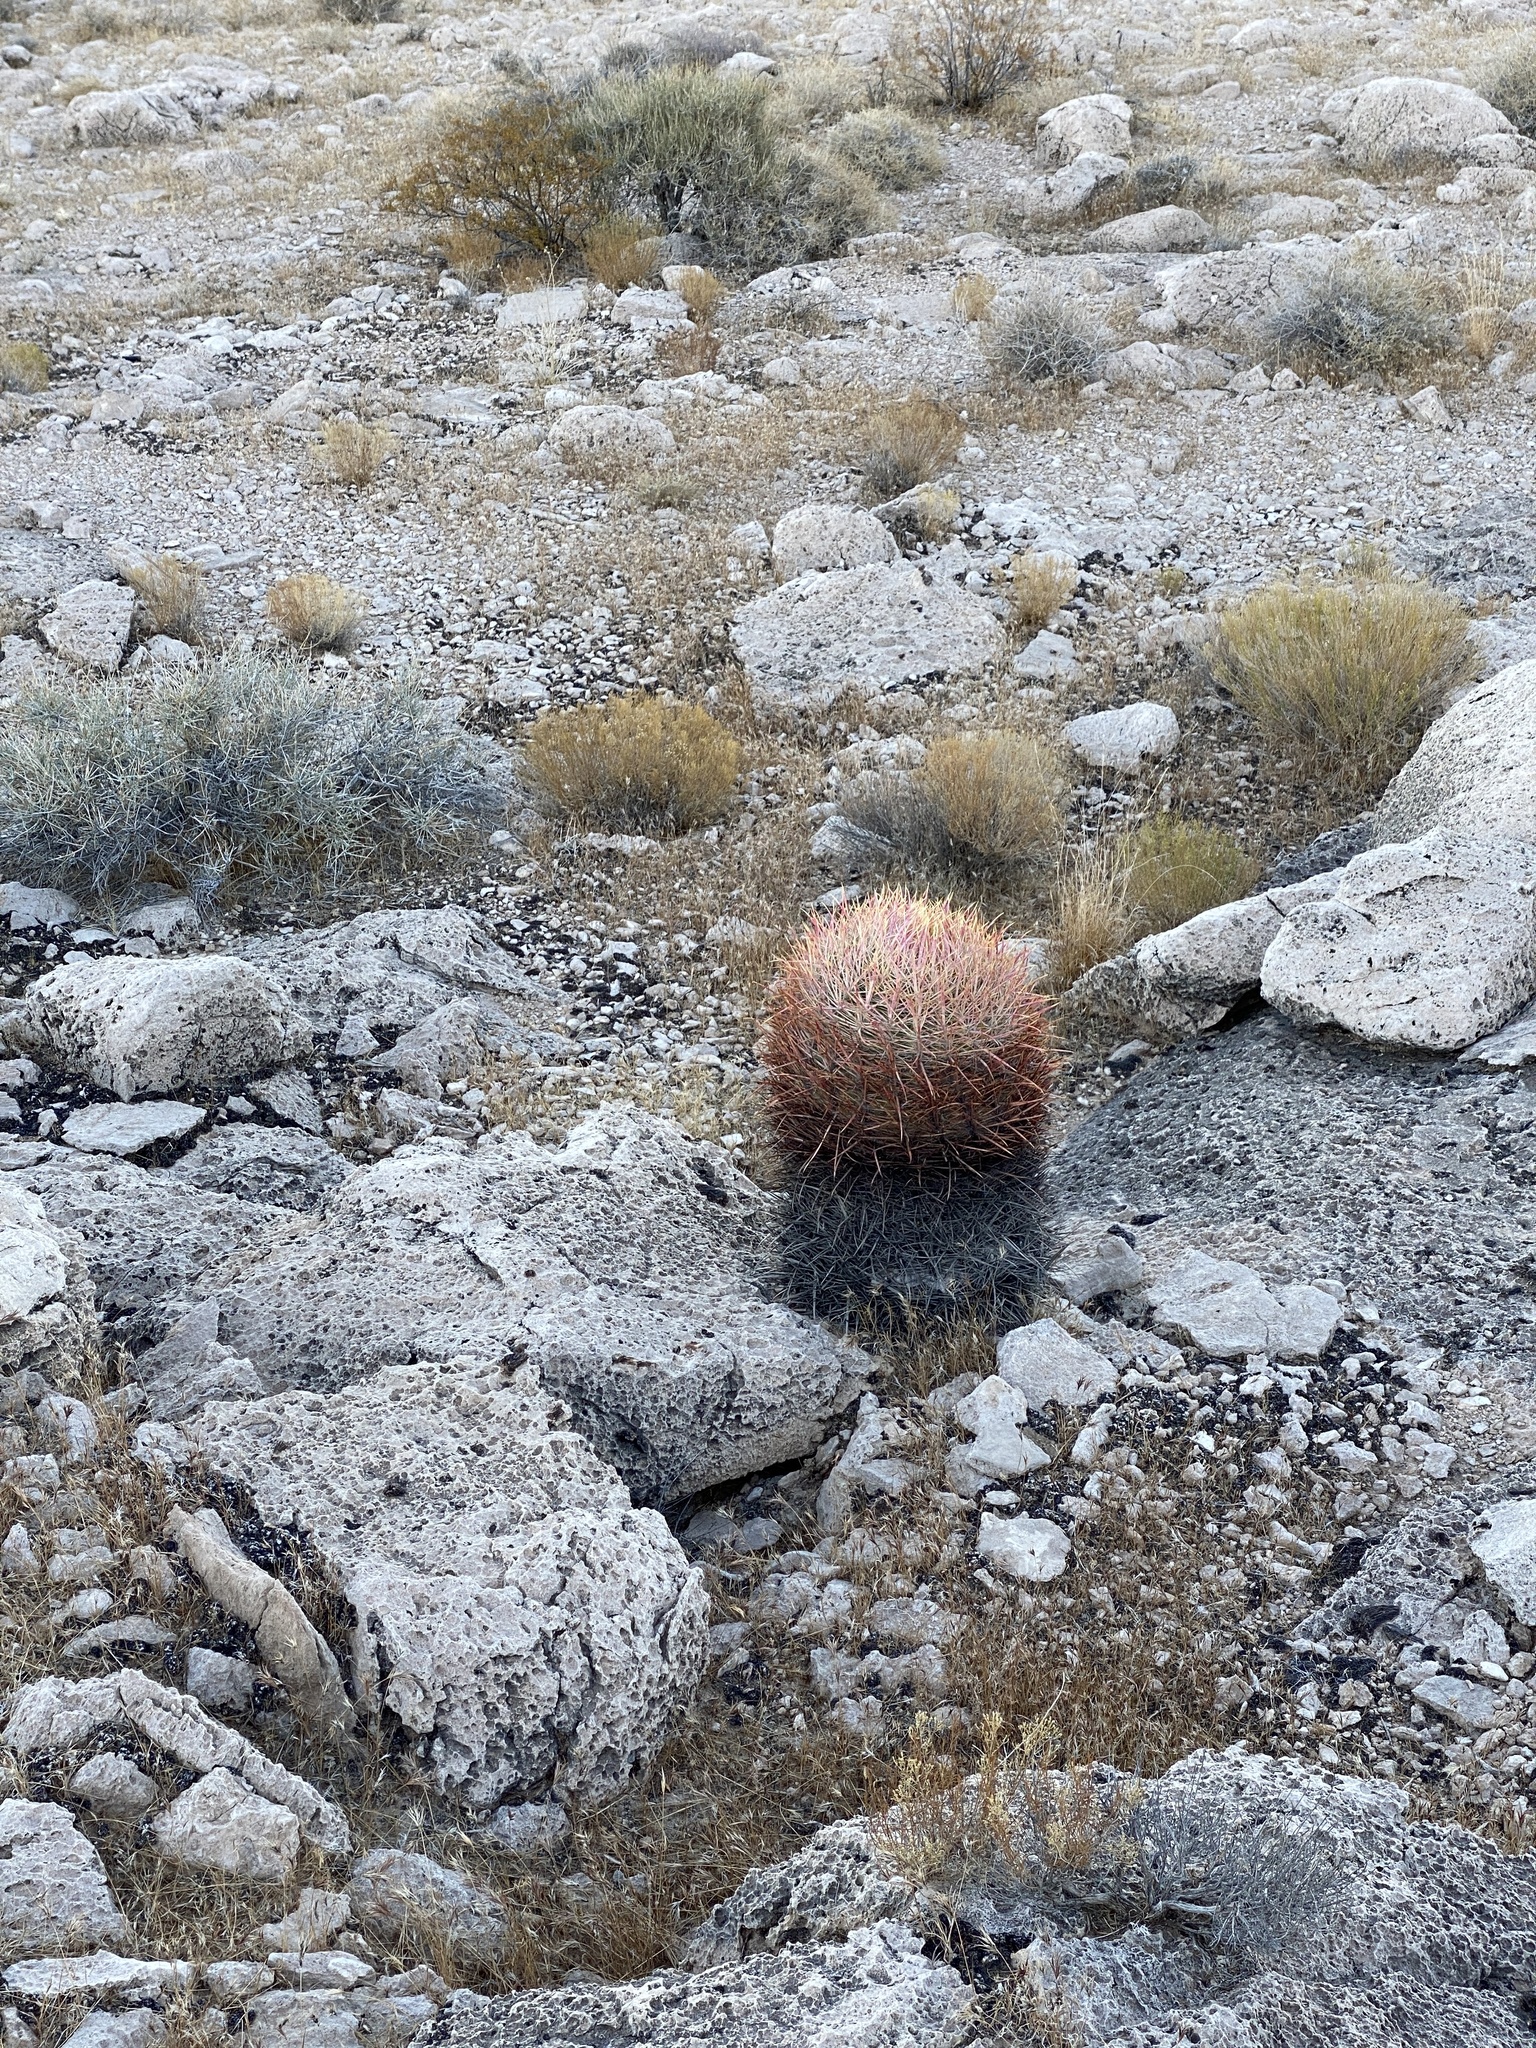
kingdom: Plantae
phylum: Tracheophyta
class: Magnoliopsida
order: Caryophyllales
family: Cactaceae
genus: Ferocactus
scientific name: Ferocactus cylindraceus
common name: California barrel cactus
